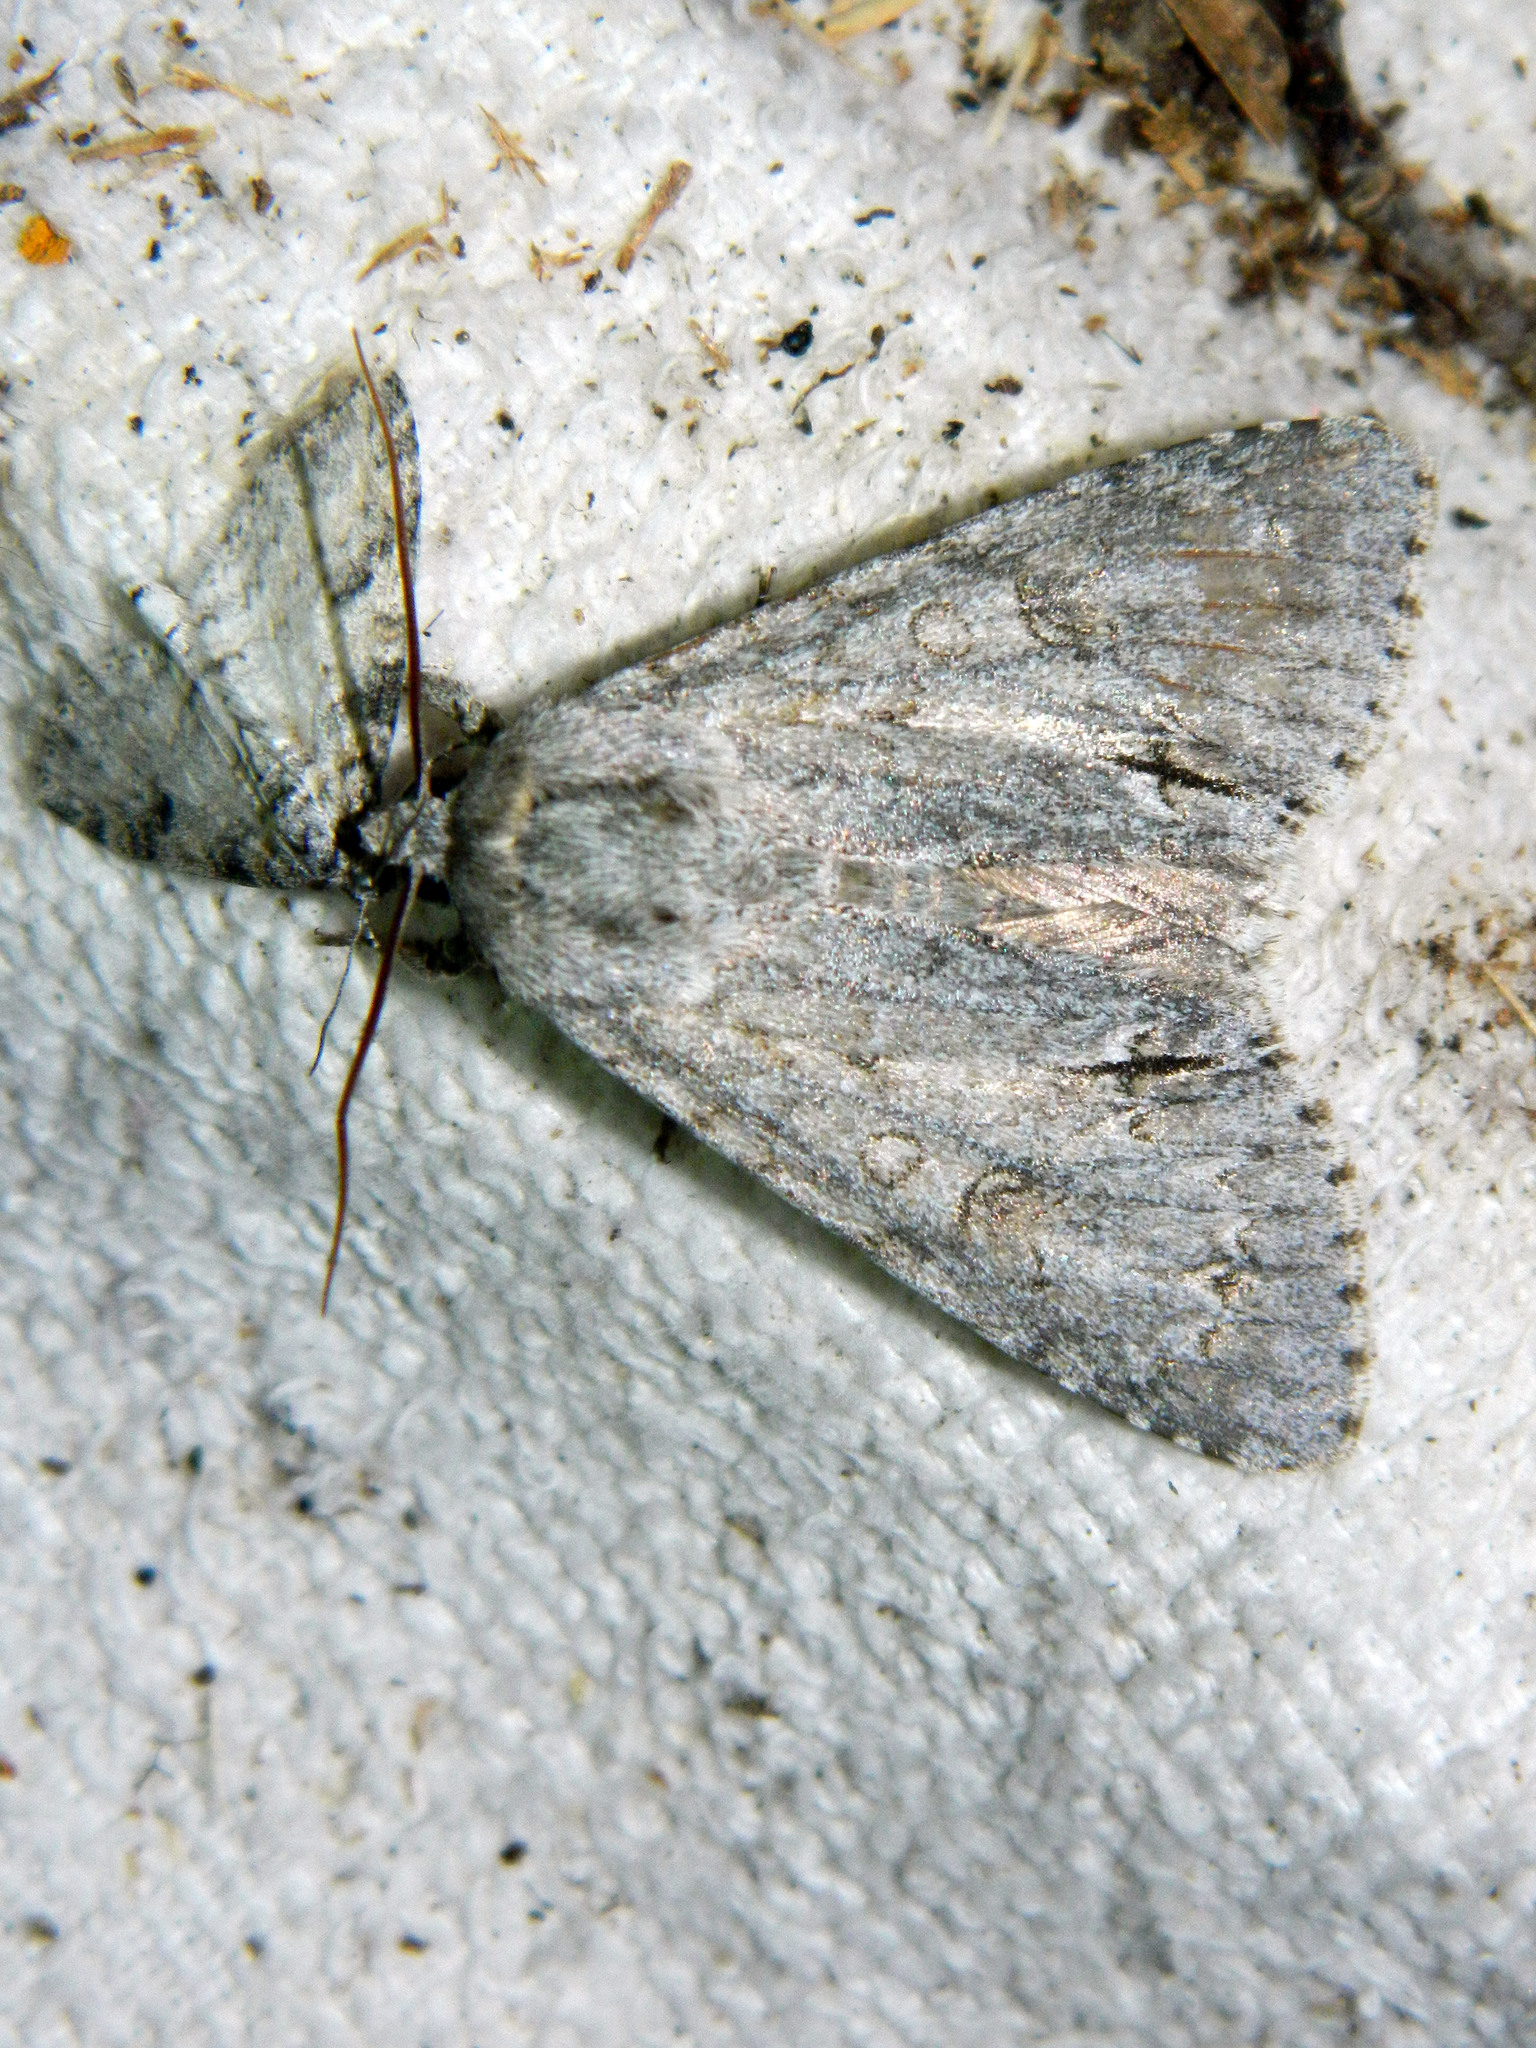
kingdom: Animalia
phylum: Arthropoda
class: Insecta
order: Lepidoptera
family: Noctuidae
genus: Acronicta
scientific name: Acronicta americana
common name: American dagger
